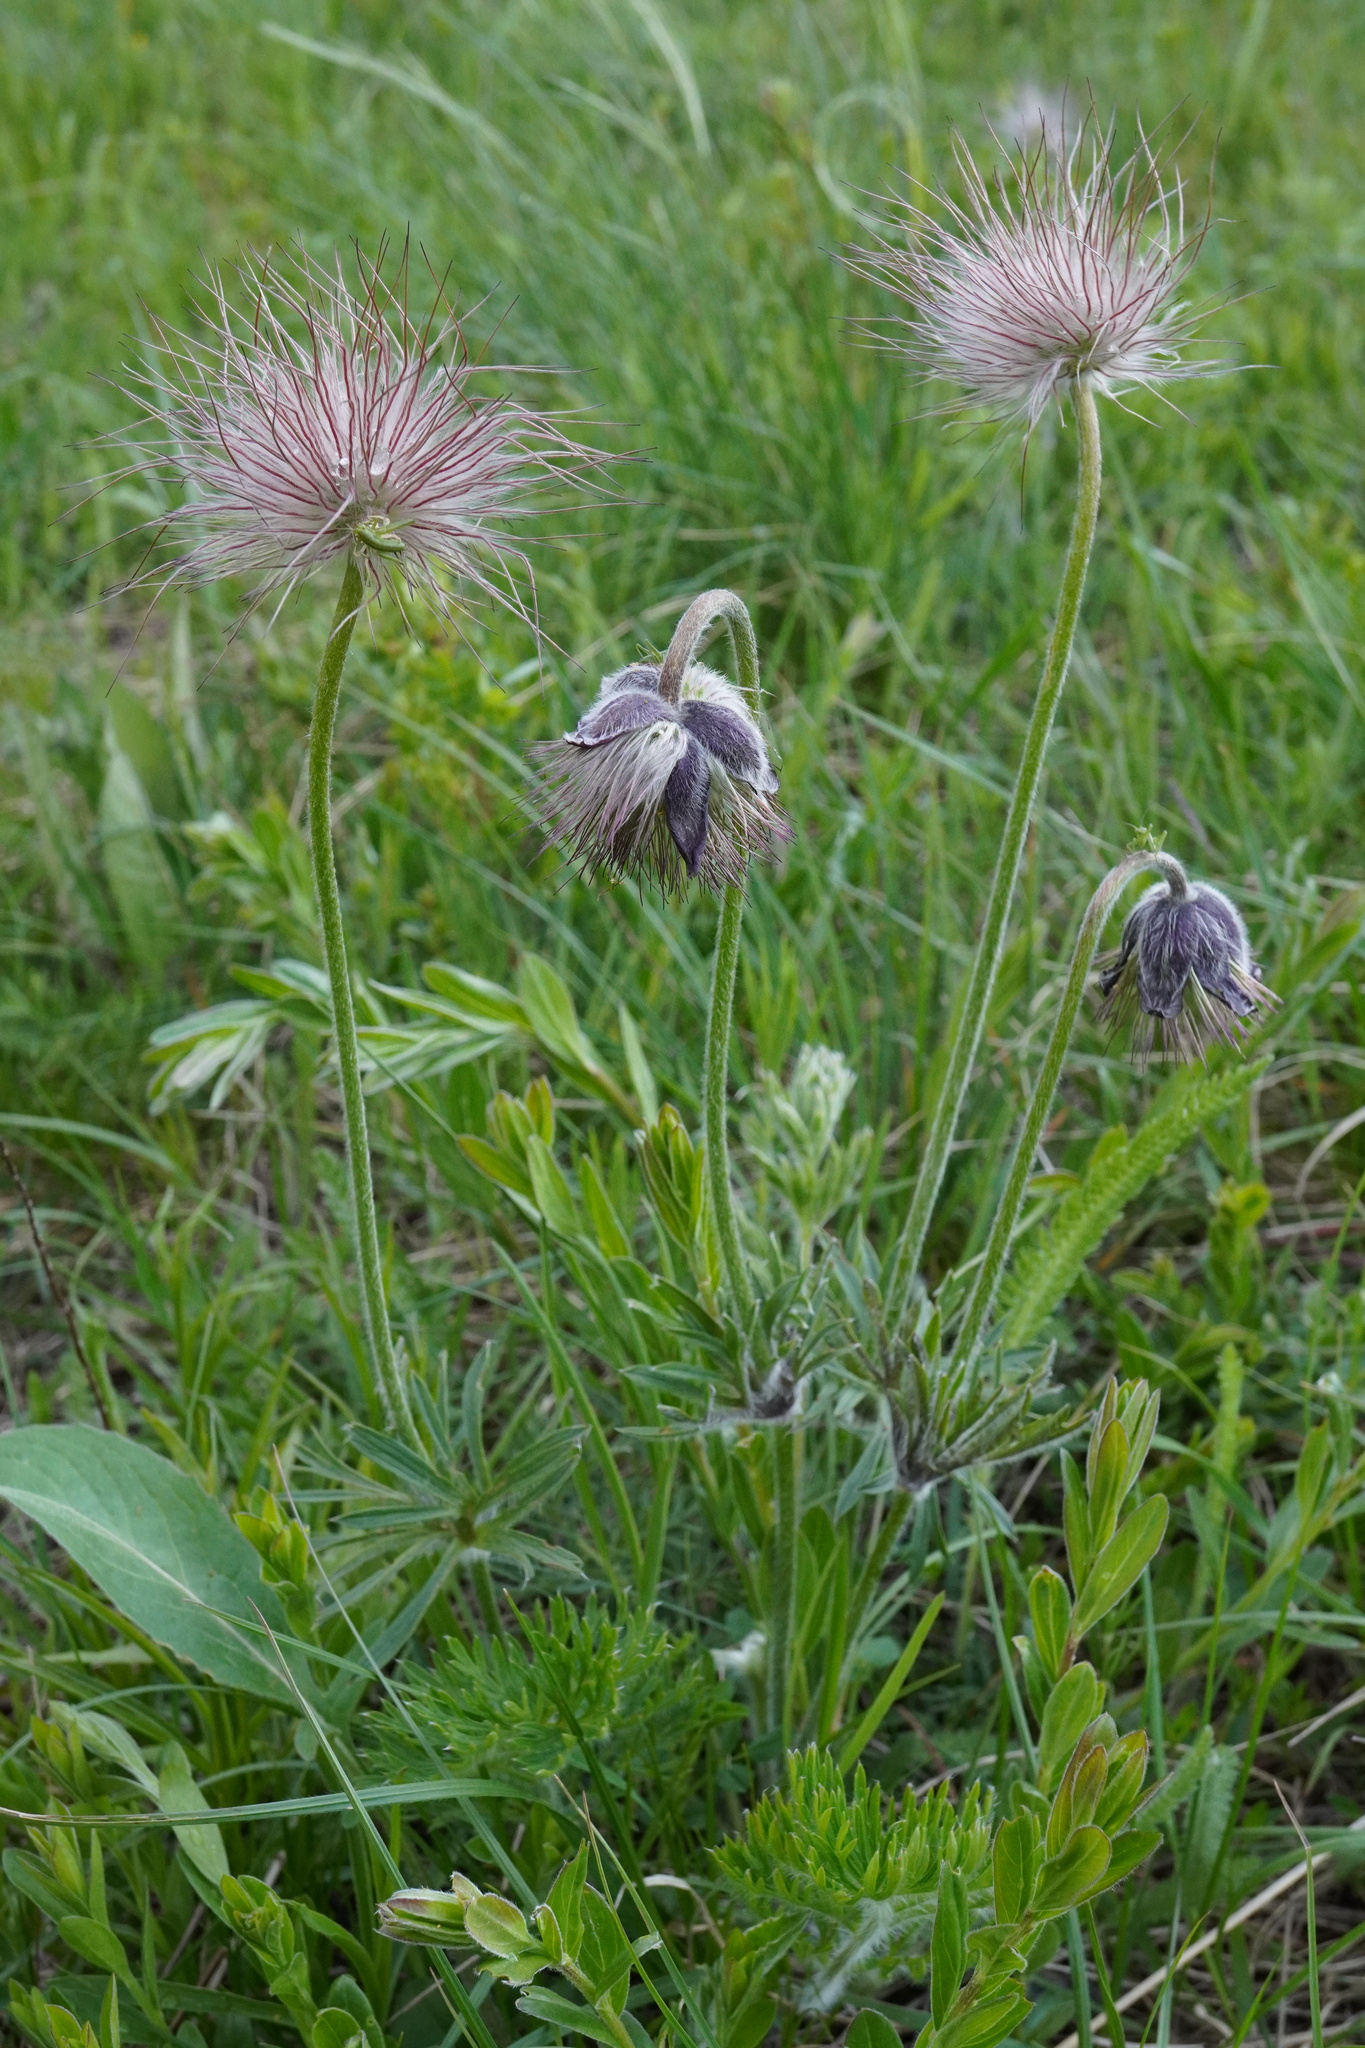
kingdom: Plantae
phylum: Tracheophyta
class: Magnoliopsida
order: Ranunculales
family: Ranunculaceae
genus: Pulsatilla
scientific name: Pulsatilla pratensis
